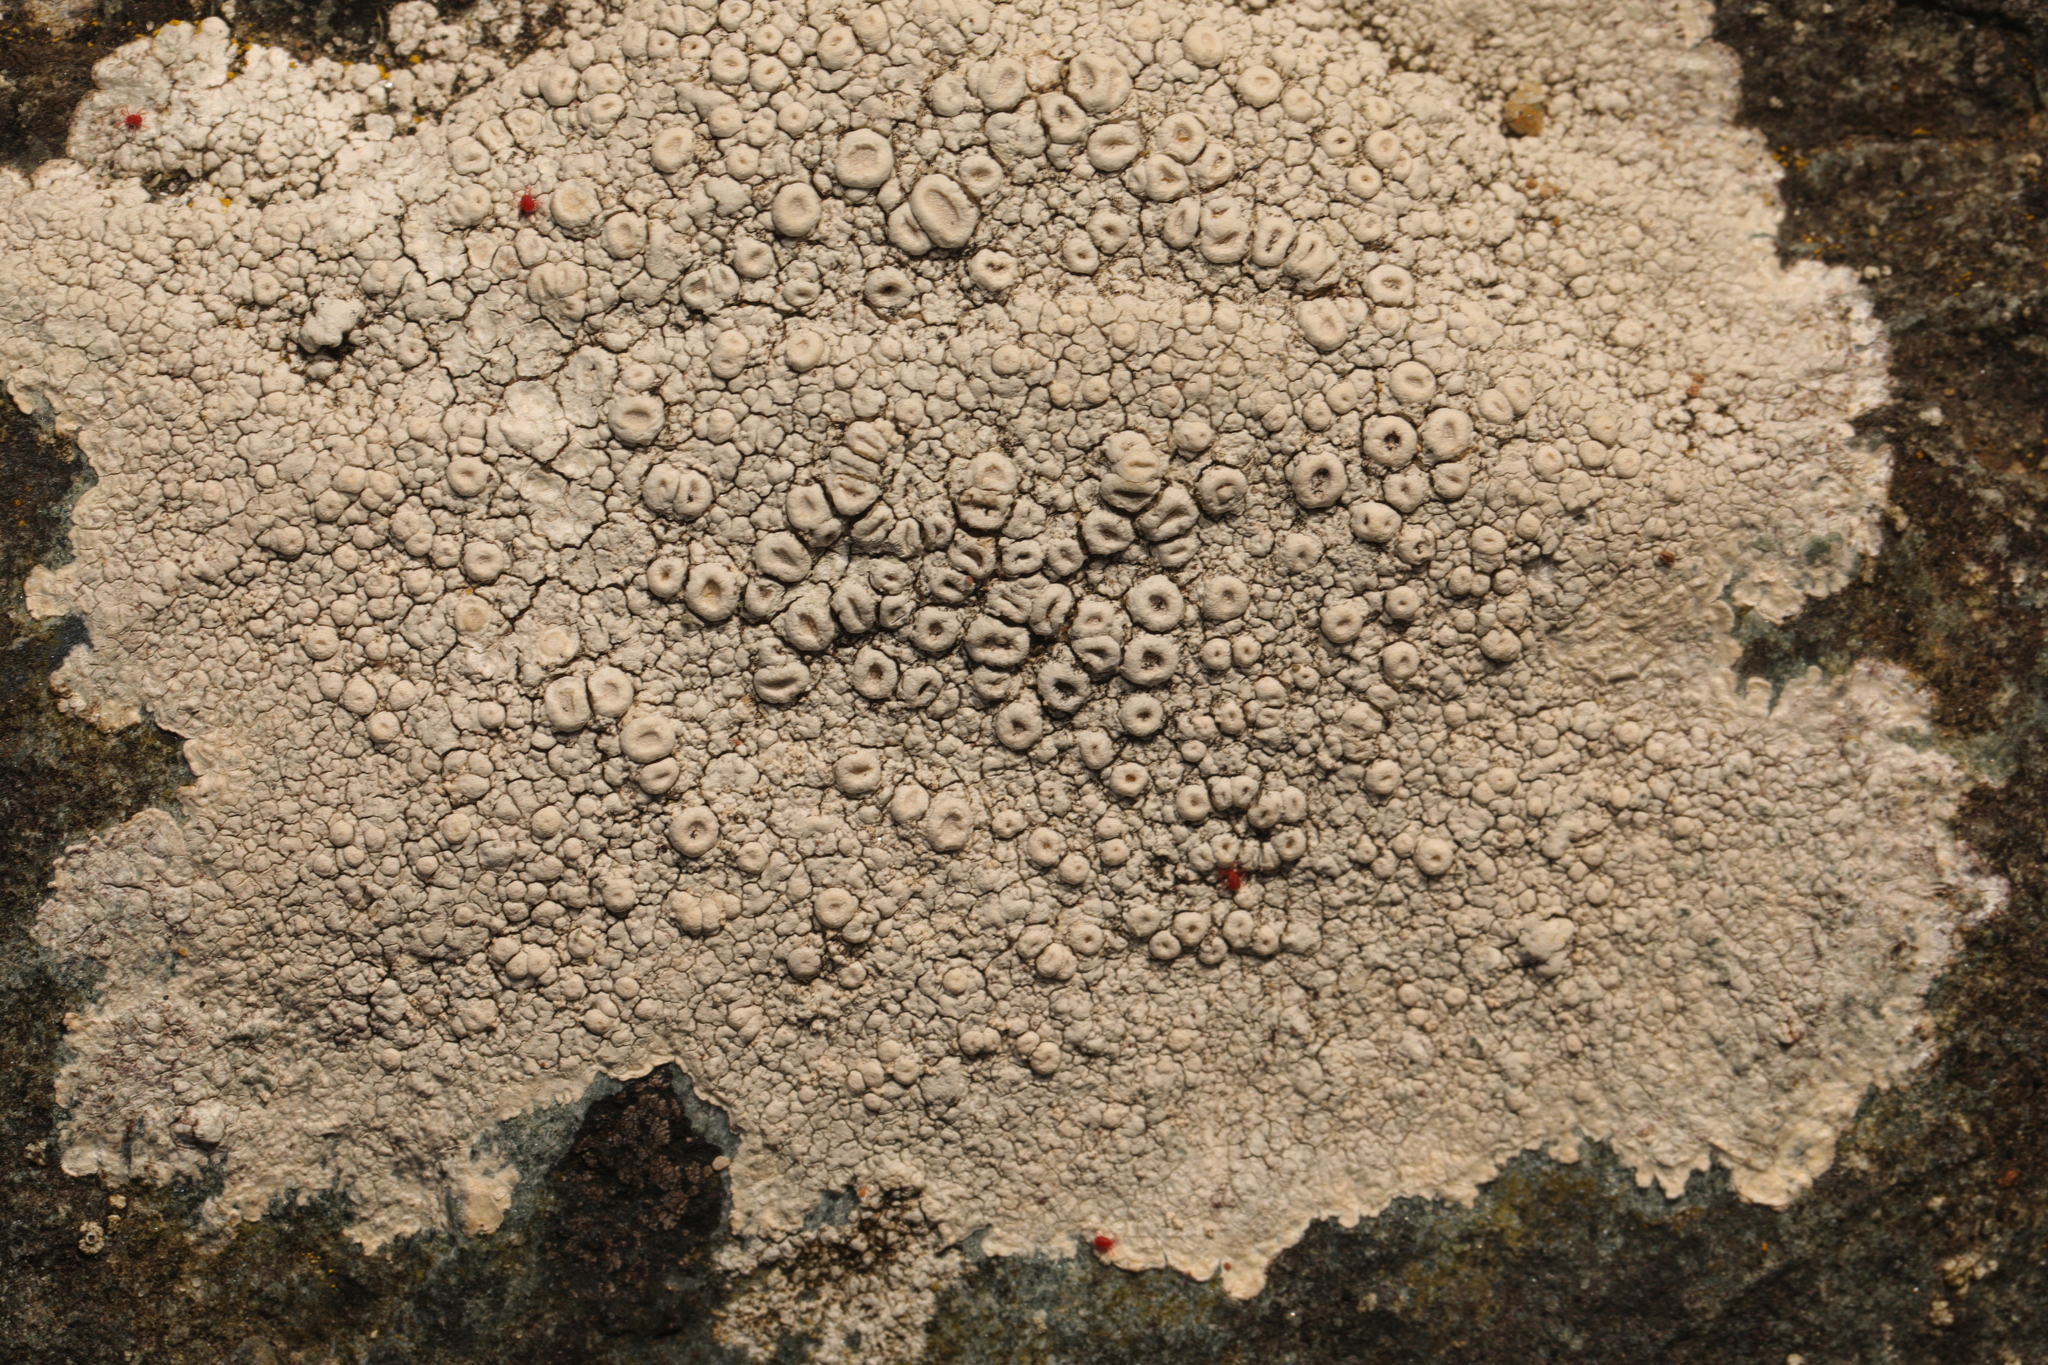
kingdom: Fungi
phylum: Ascomycota
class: Lecanoromycetes
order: Pertusariales
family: Ochrolechiaceae
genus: Ochrolechia
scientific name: Ochrolechia parella
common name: Crab's eye lichen
